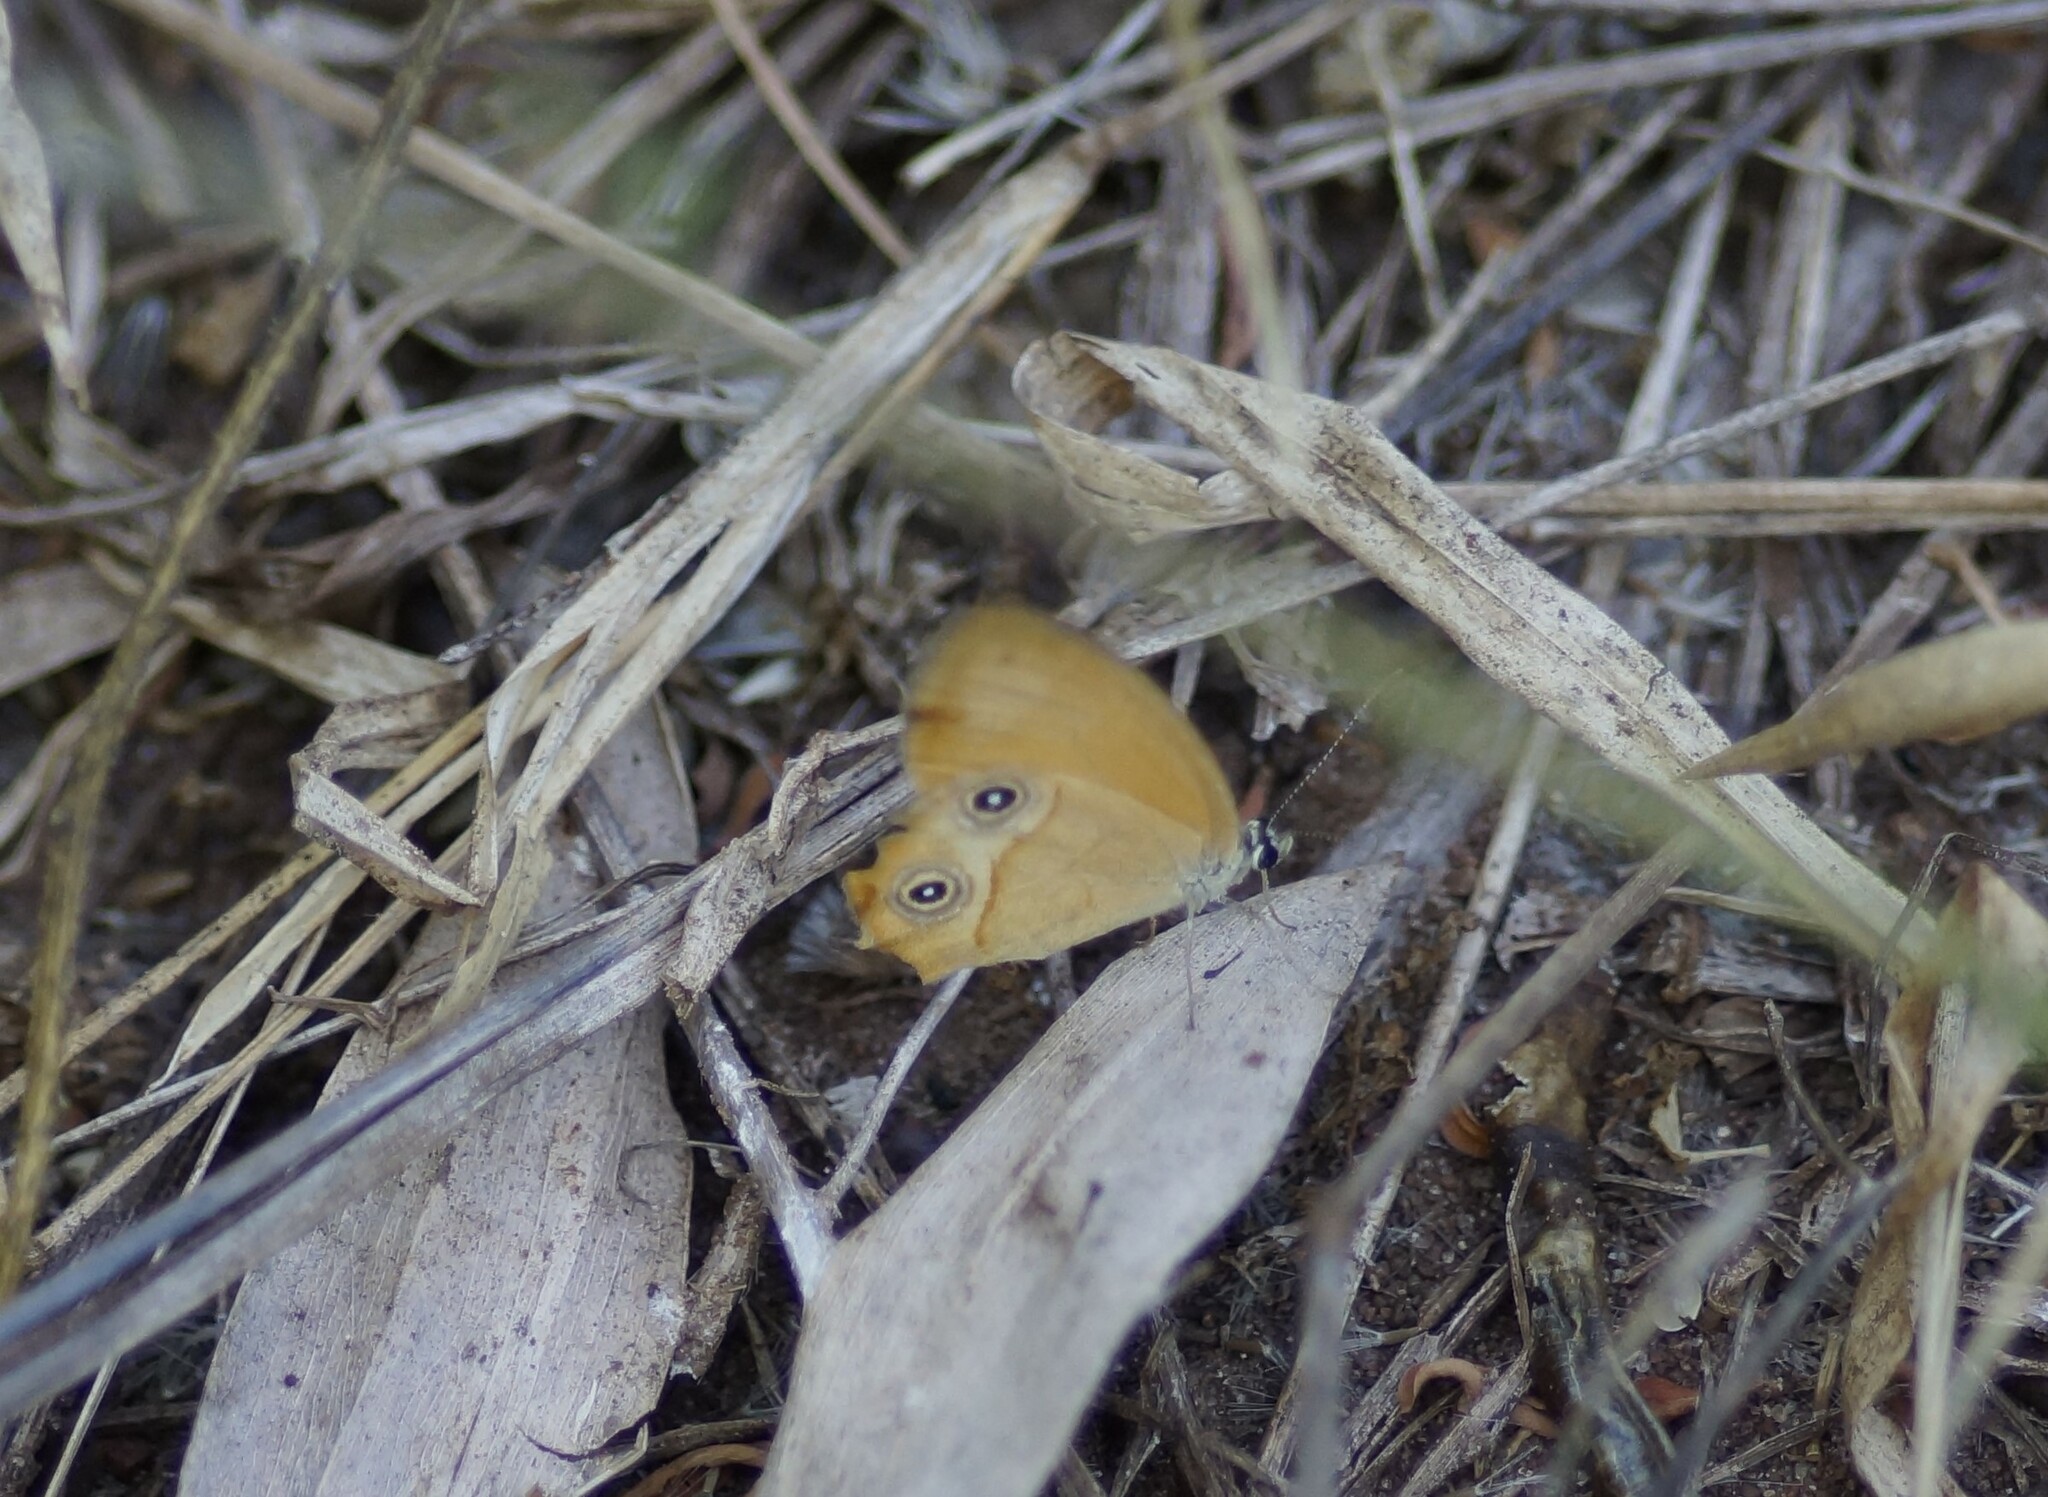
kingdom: Animalia
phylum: Arthropoda
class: Insecta
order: Lepidoptera
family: Nymphalidae
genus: Hypocysta
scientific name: Hypocysta adiante
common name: Orange ringlet
